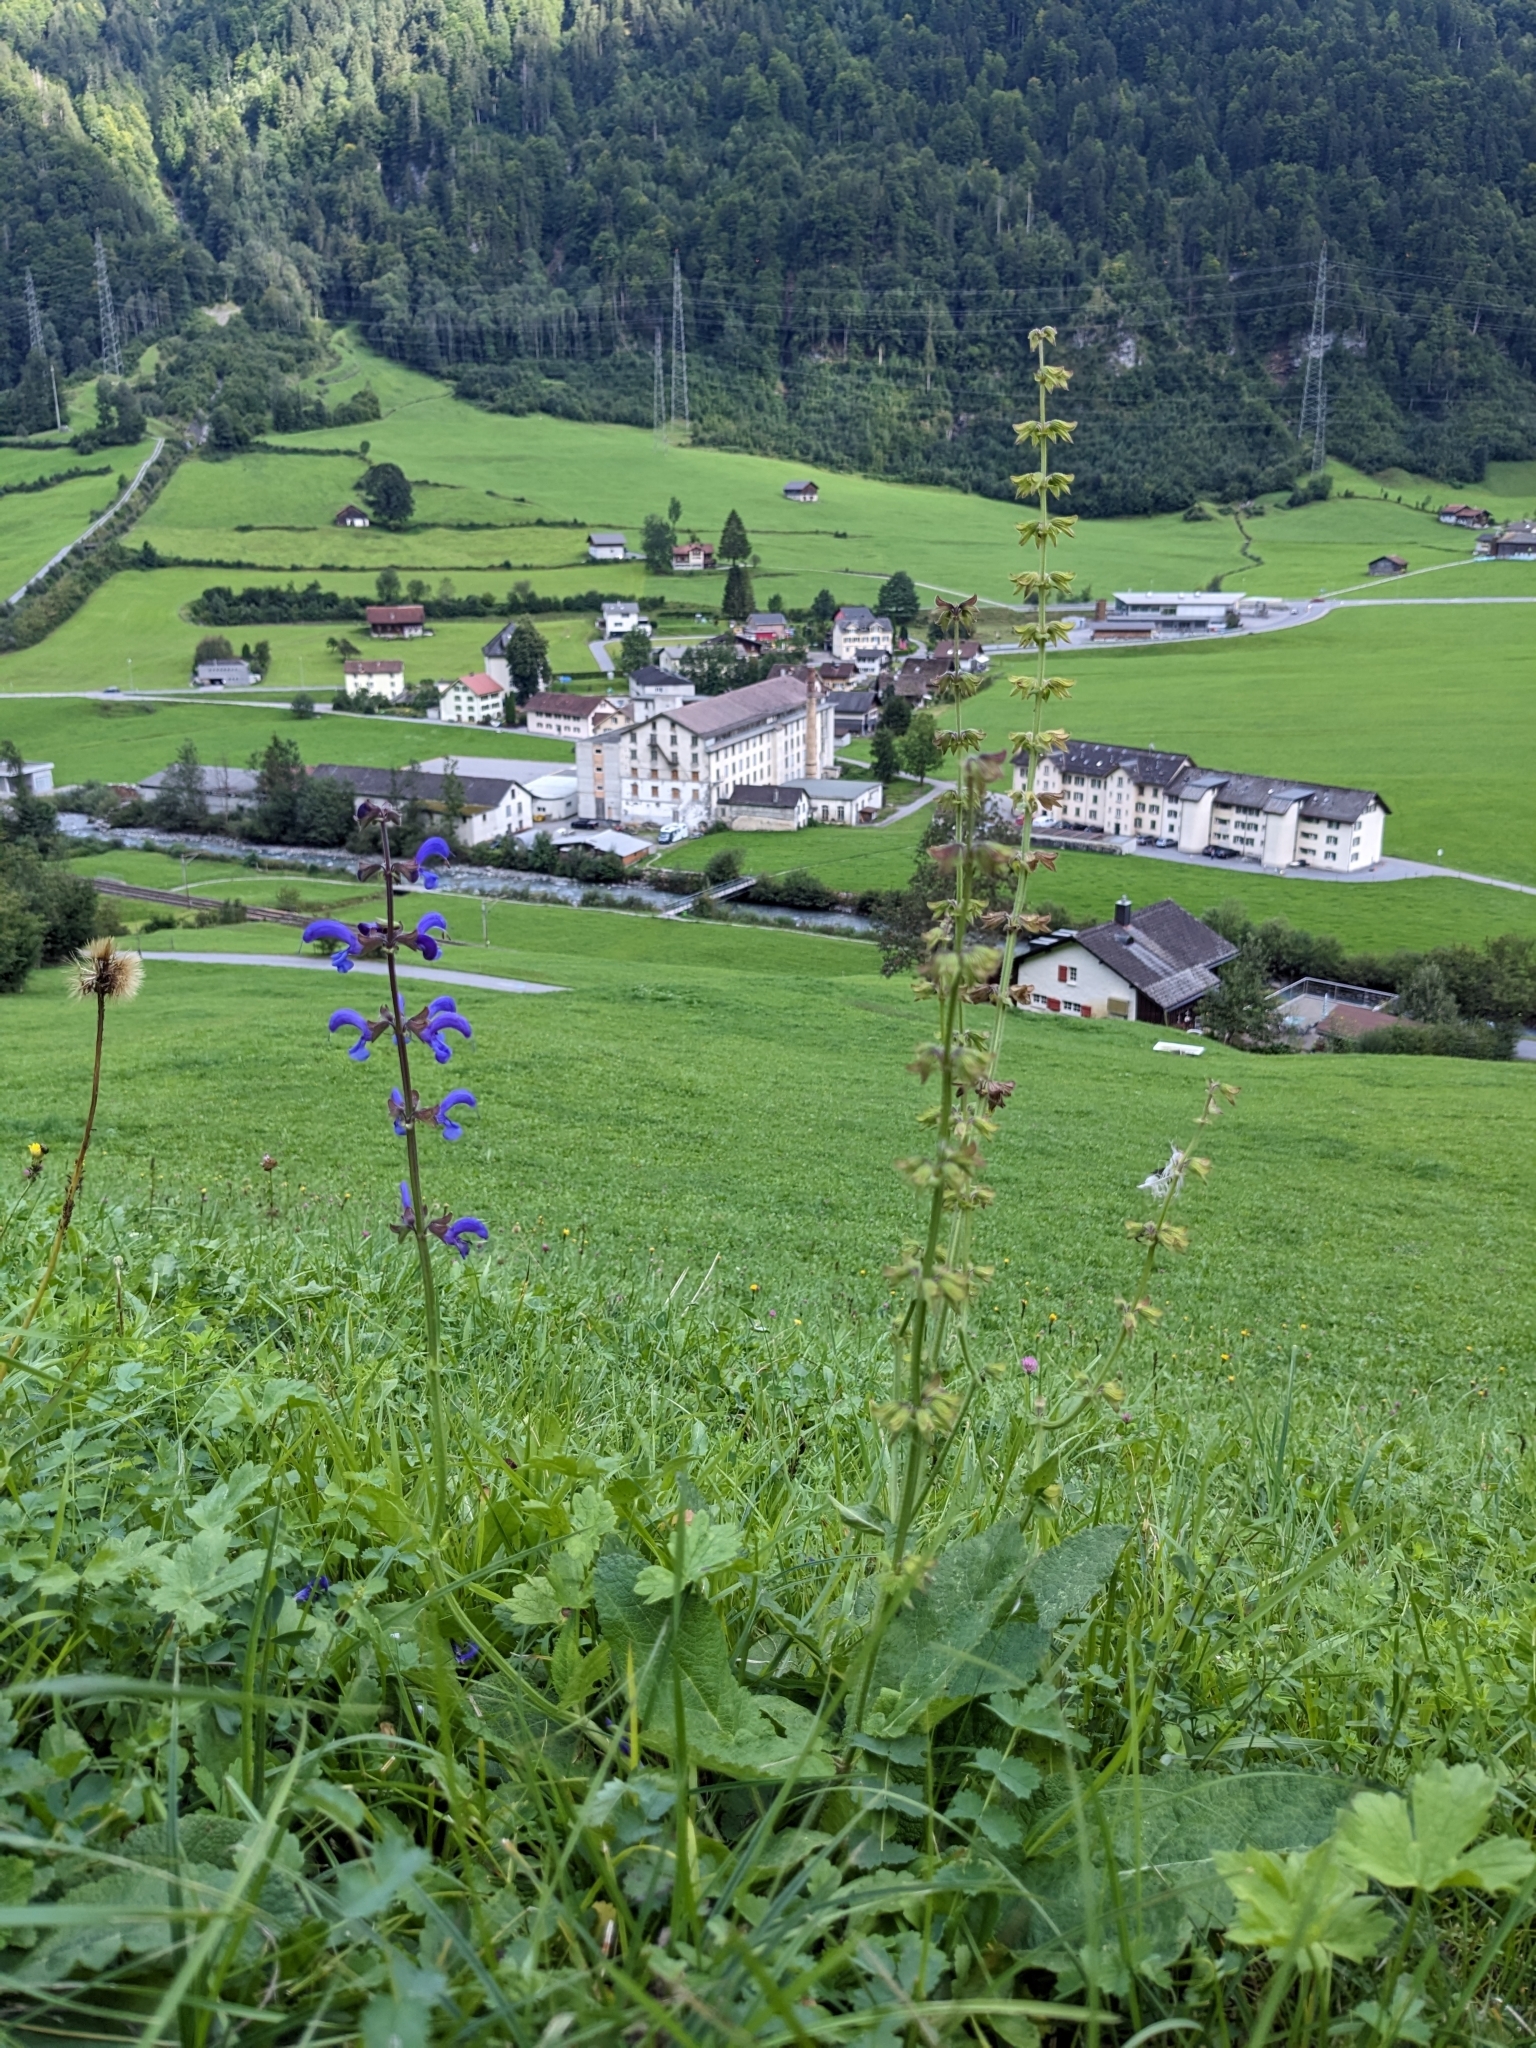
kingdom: Plantae
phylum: Tracheophyta
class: Magnoliopsida
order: Lamiales
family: Lamiaceae
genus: Salvia
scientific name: Salvia pratensis
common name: Meadow sage
